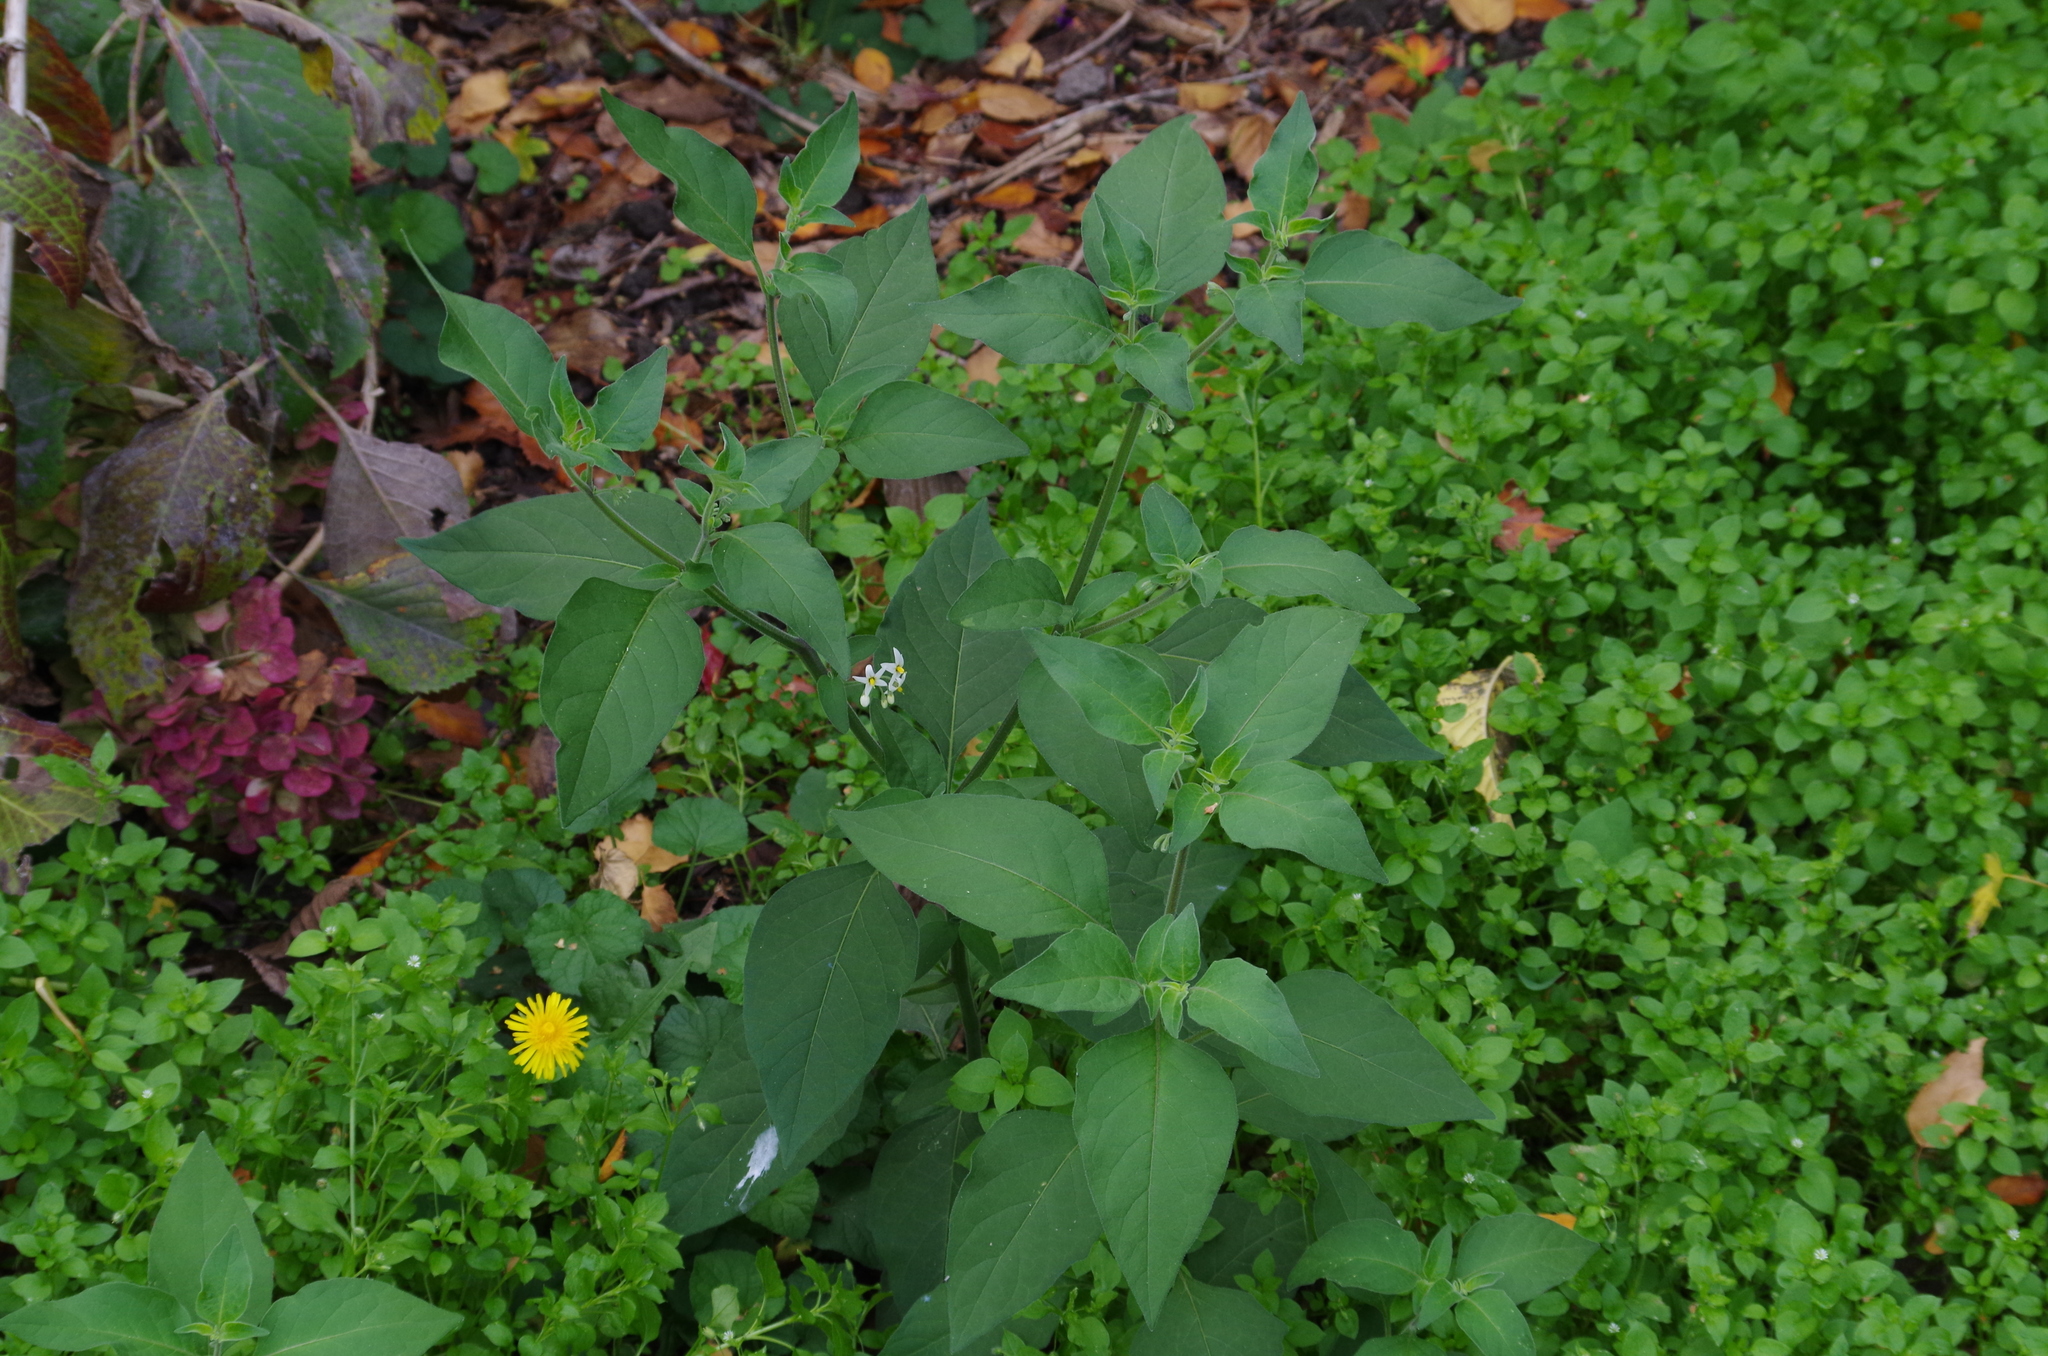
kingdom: Plantae
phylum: Tracheophyta
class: Magnoliopsida
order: Solanales
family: Solanaceae
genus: Solanum
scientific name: Solanum chenopodioides
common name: Tall nightshade
